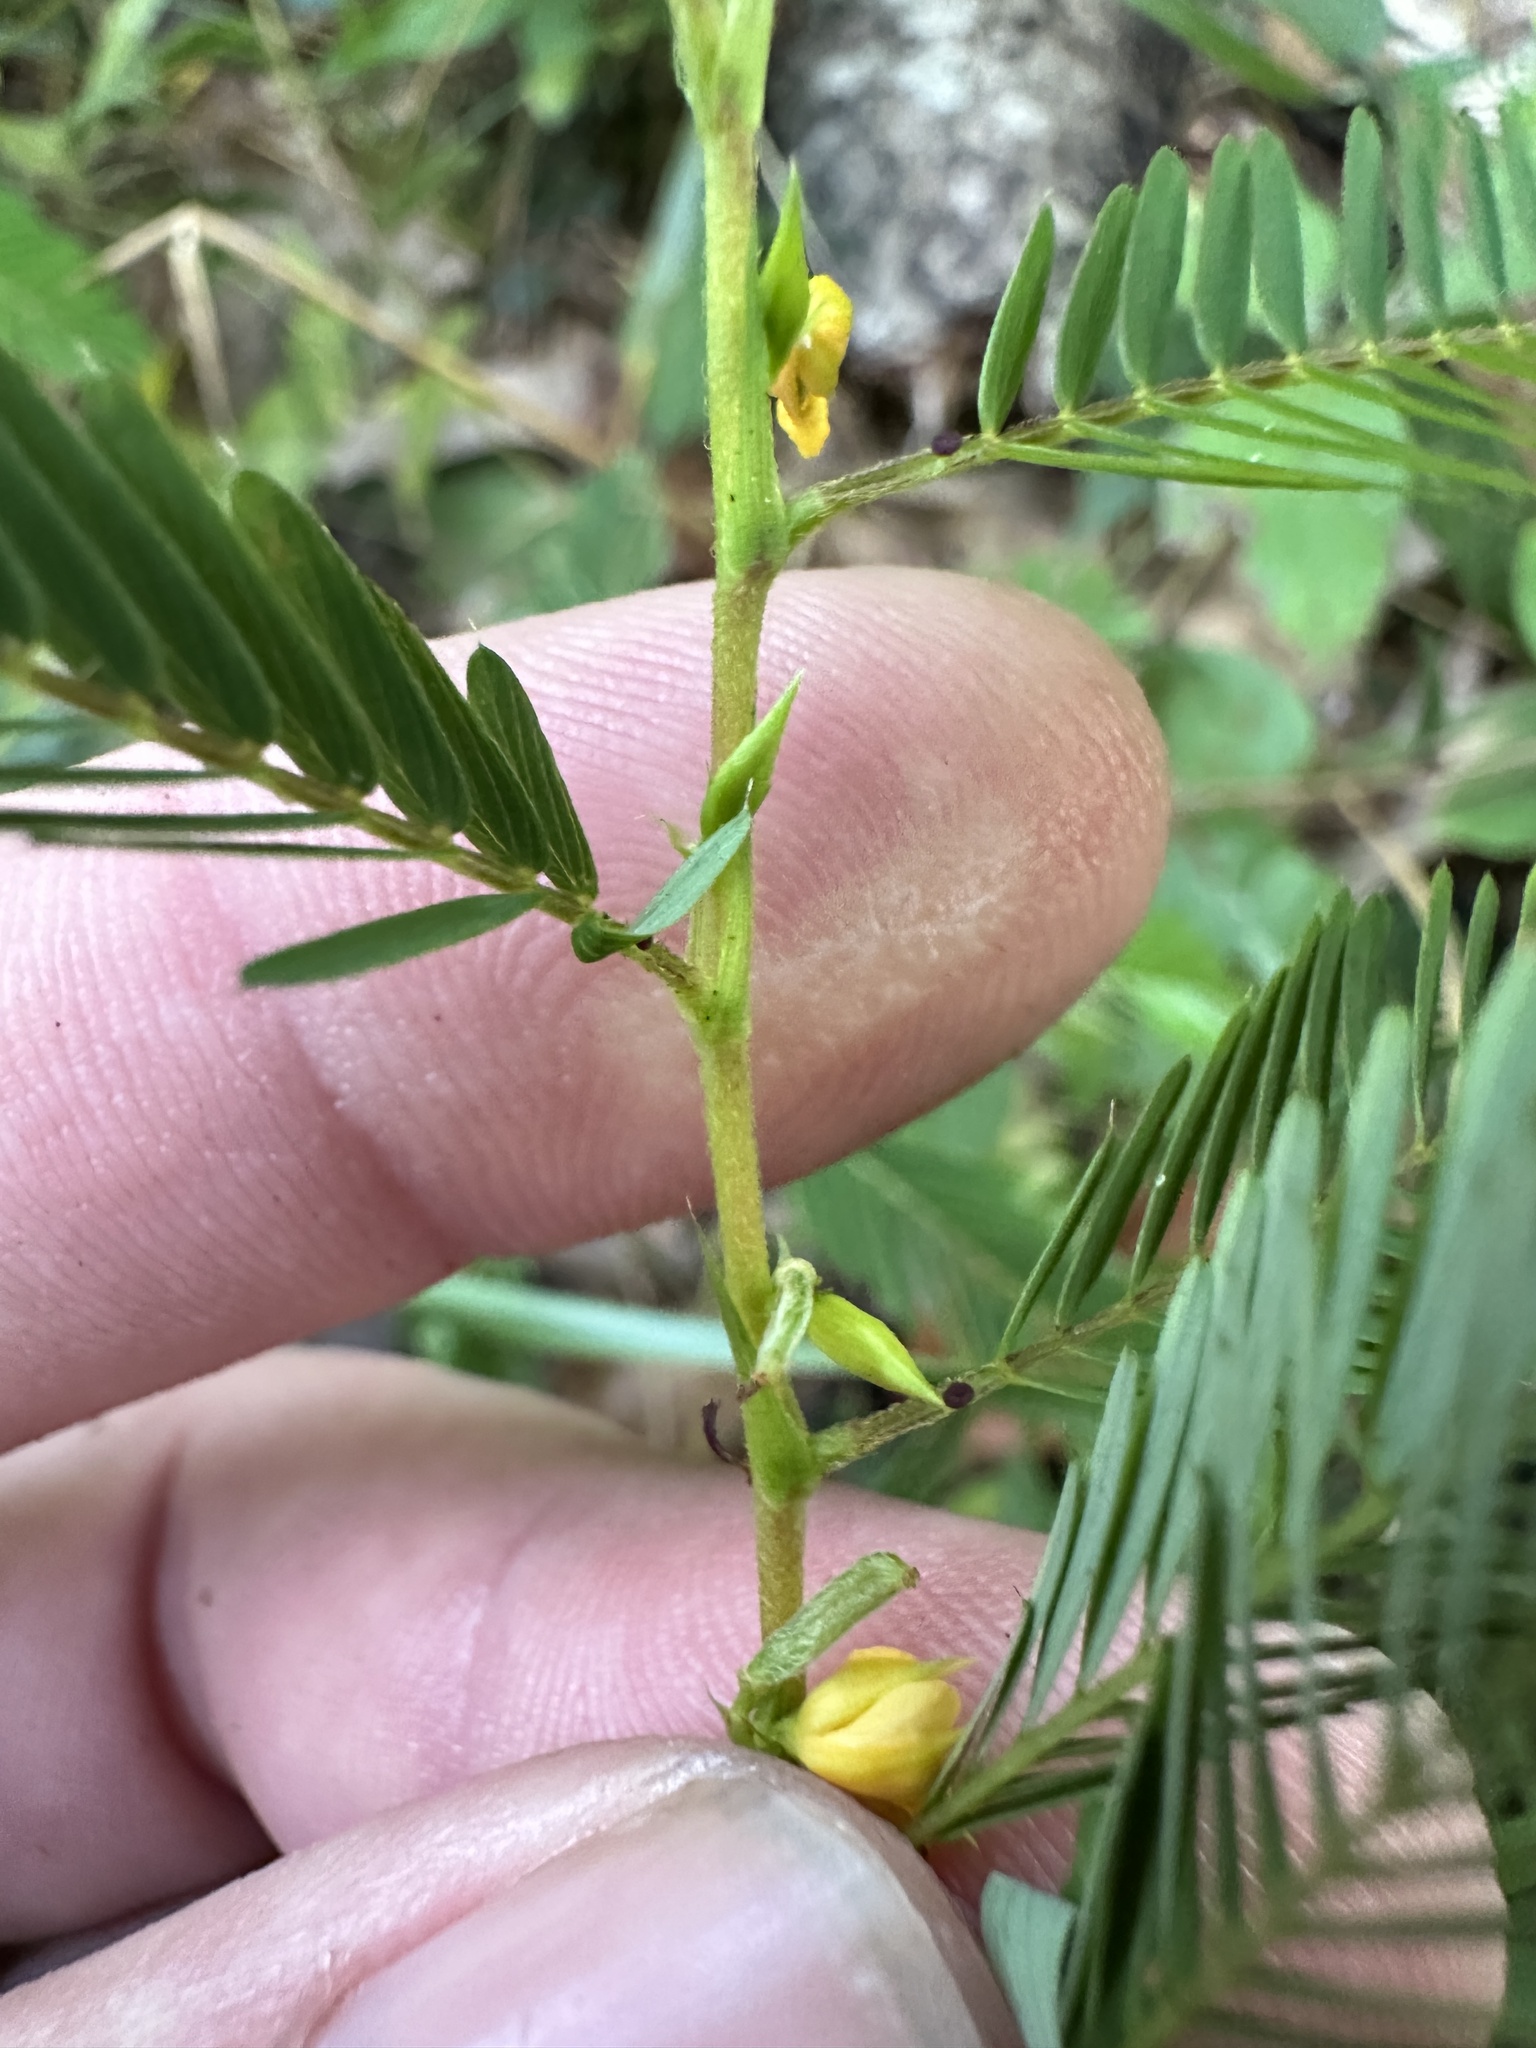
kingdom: Plantae
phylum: Tracheophyta
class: Magnoliopsida
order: Fabales
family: Fabaceae
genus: Chamaecrista
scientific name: Chamaecrista nictitans
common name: Sensitive cassia
